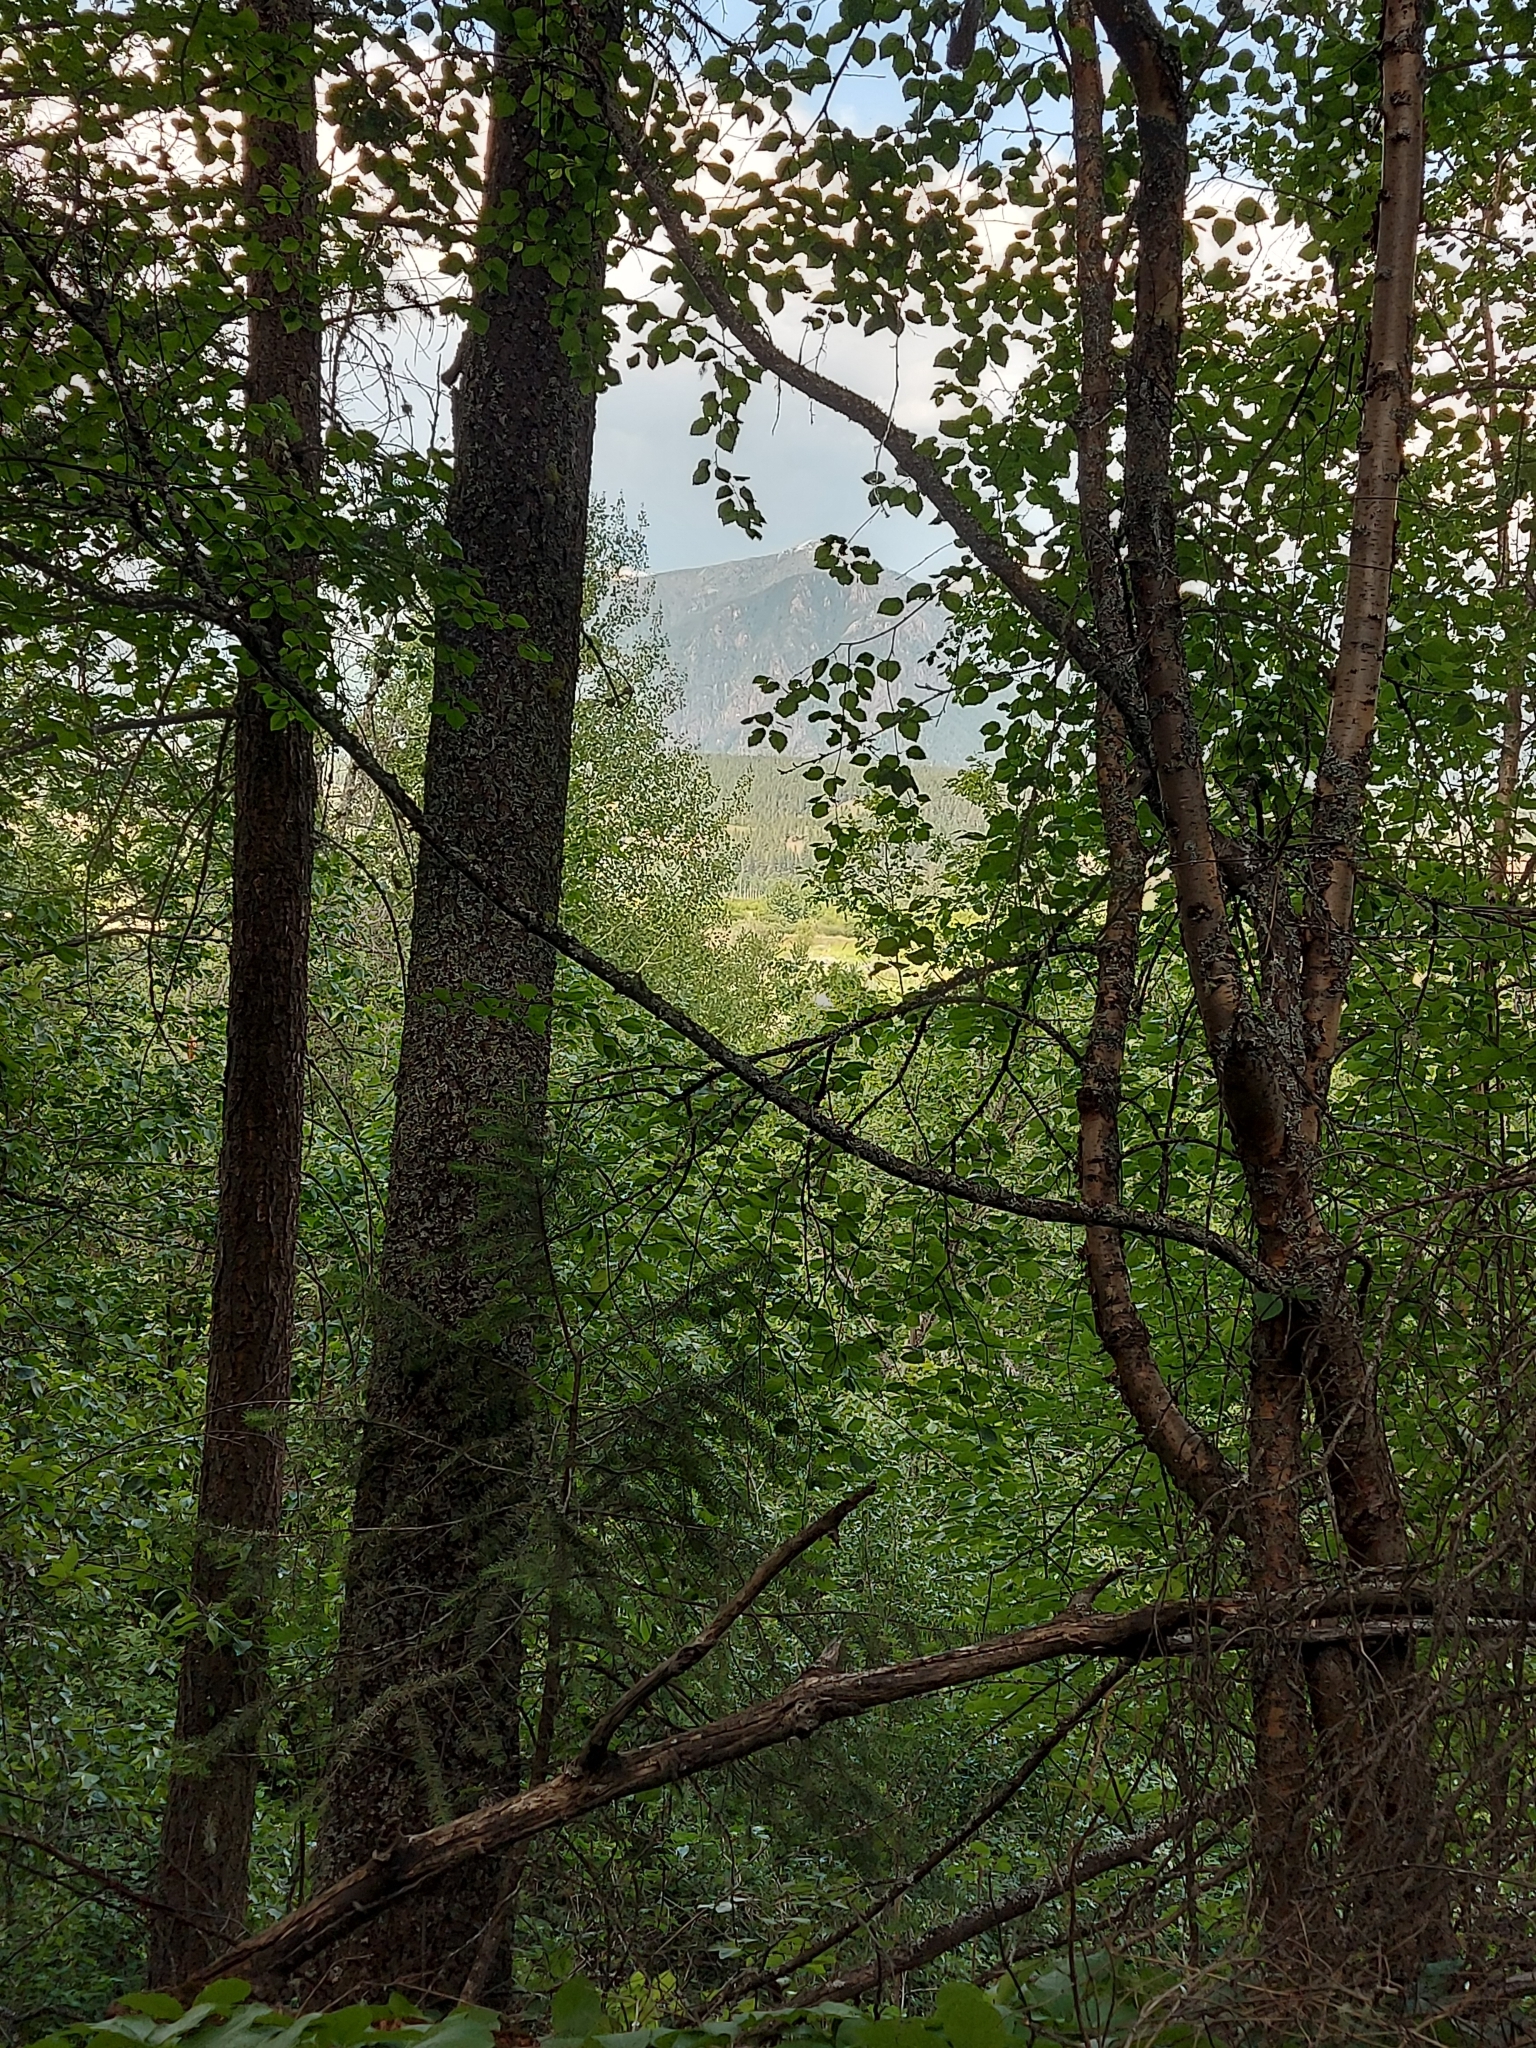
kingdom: Animalia
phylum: Chordata
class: Aves
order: Passeriformes
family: Vireonidae
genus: Vireo
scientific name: Vireo olivaceus
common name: Red-eyed vireo
